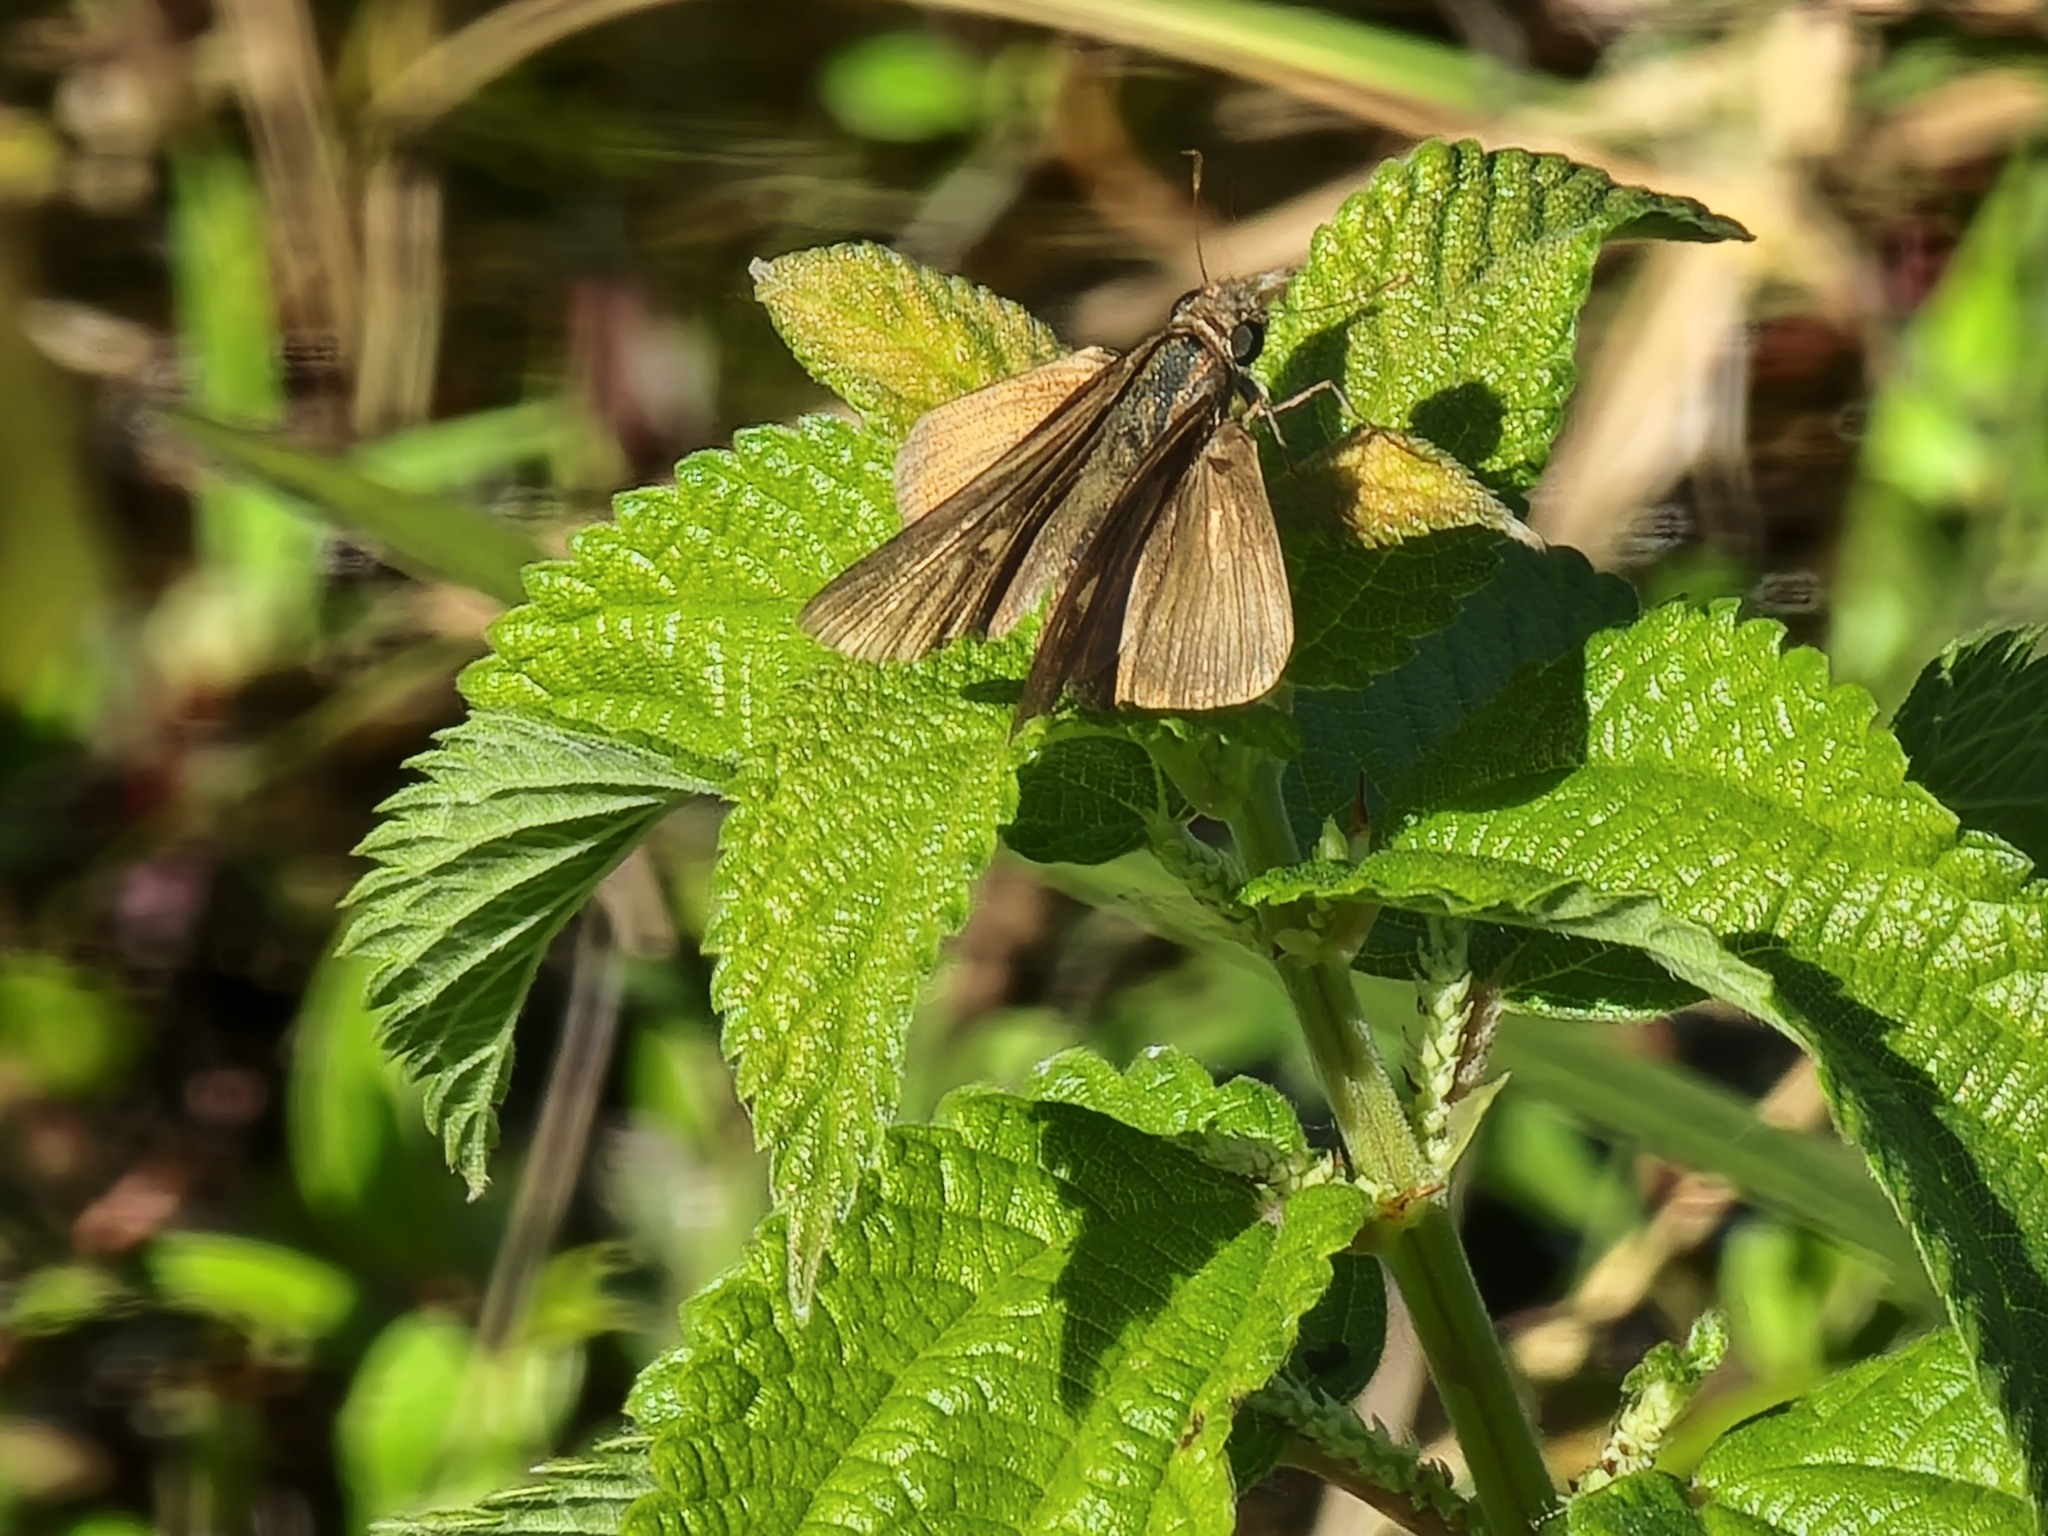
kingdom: Animalia
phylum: Arthropoda
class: Insecta
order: Lepidoptera
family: Hesperiidae
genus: Panoquina
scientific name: Panoquina ocola
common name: Ocola skipper
